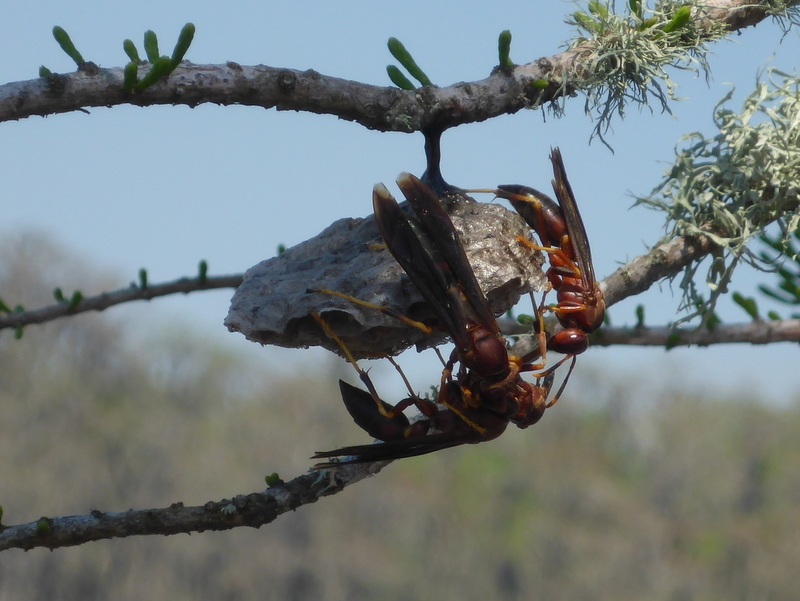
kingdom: Animalia
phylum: Arthropoda
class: Insecta
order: Hymenoptera
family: Eumenidae
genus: Polistes
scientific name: Polistes annularis
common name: Ringed paper wasp
